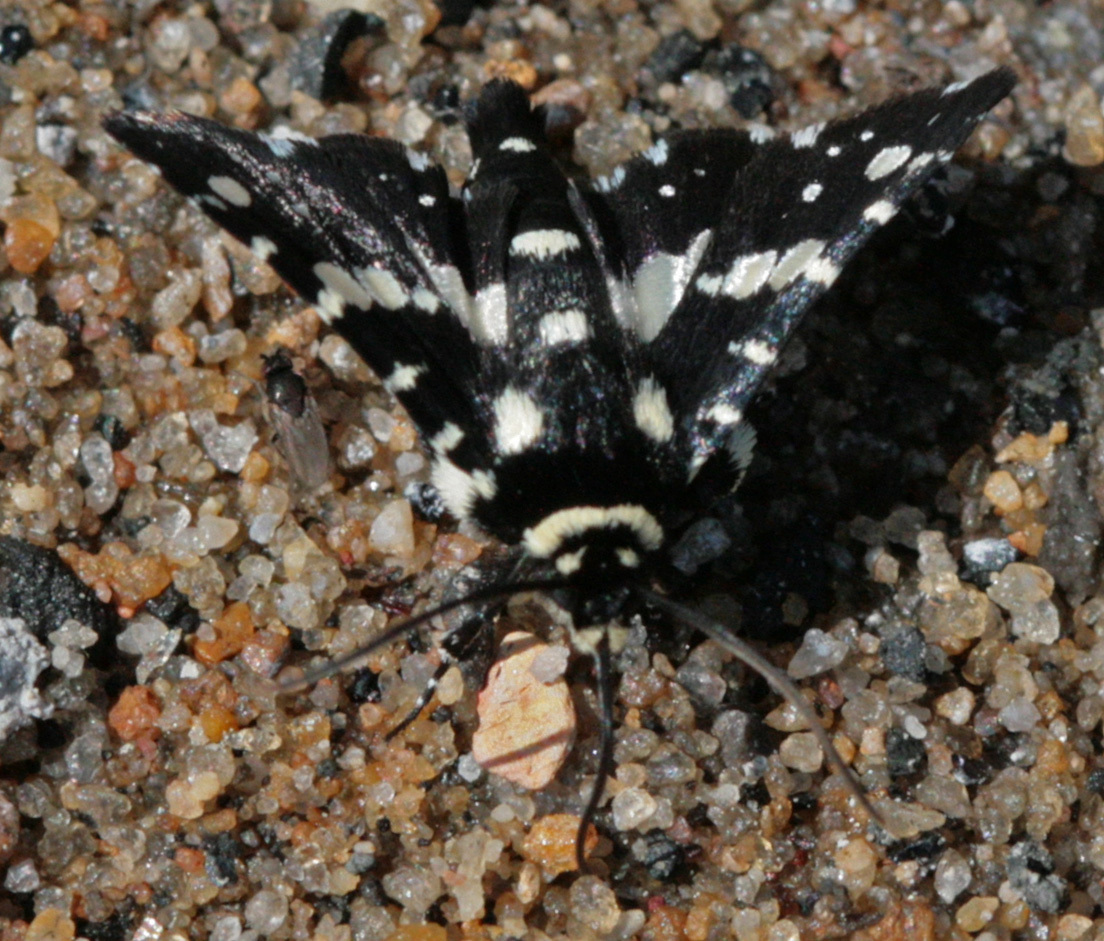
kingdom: Animalia
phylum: Arthropoda
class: Insecta
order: Lepidoptera
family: Thyrididae
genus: Pseudothyris
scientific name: Pseudothyris sepulchralis
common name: Mournful thyris moth
